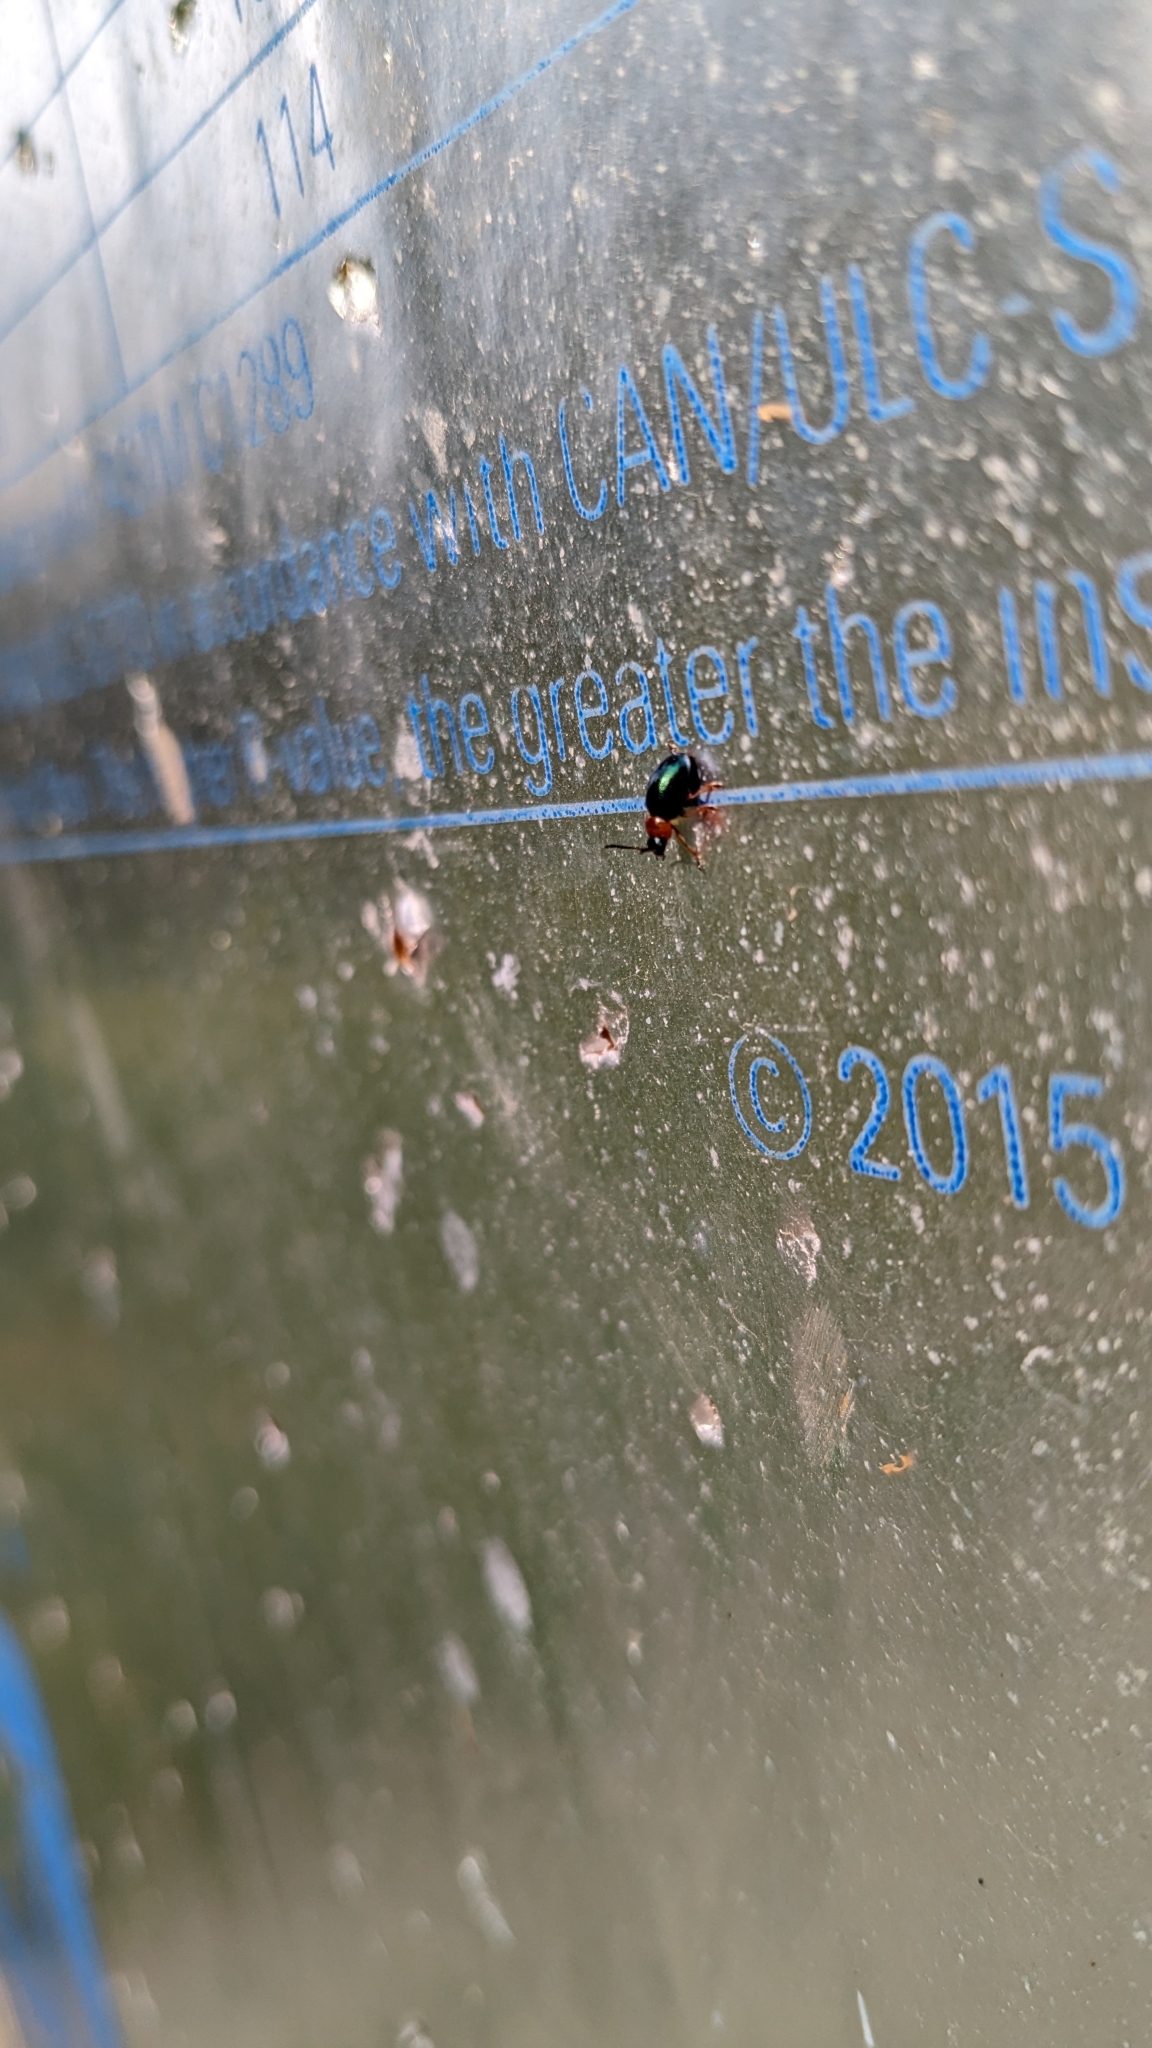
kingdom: Animalia
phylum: Arthropoda
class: Insecta
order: Coleoptera
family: Chrysomelidae
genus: Gastrophysa
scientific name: Gastrophysa polygoni
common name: Knotweed leaf beetle
